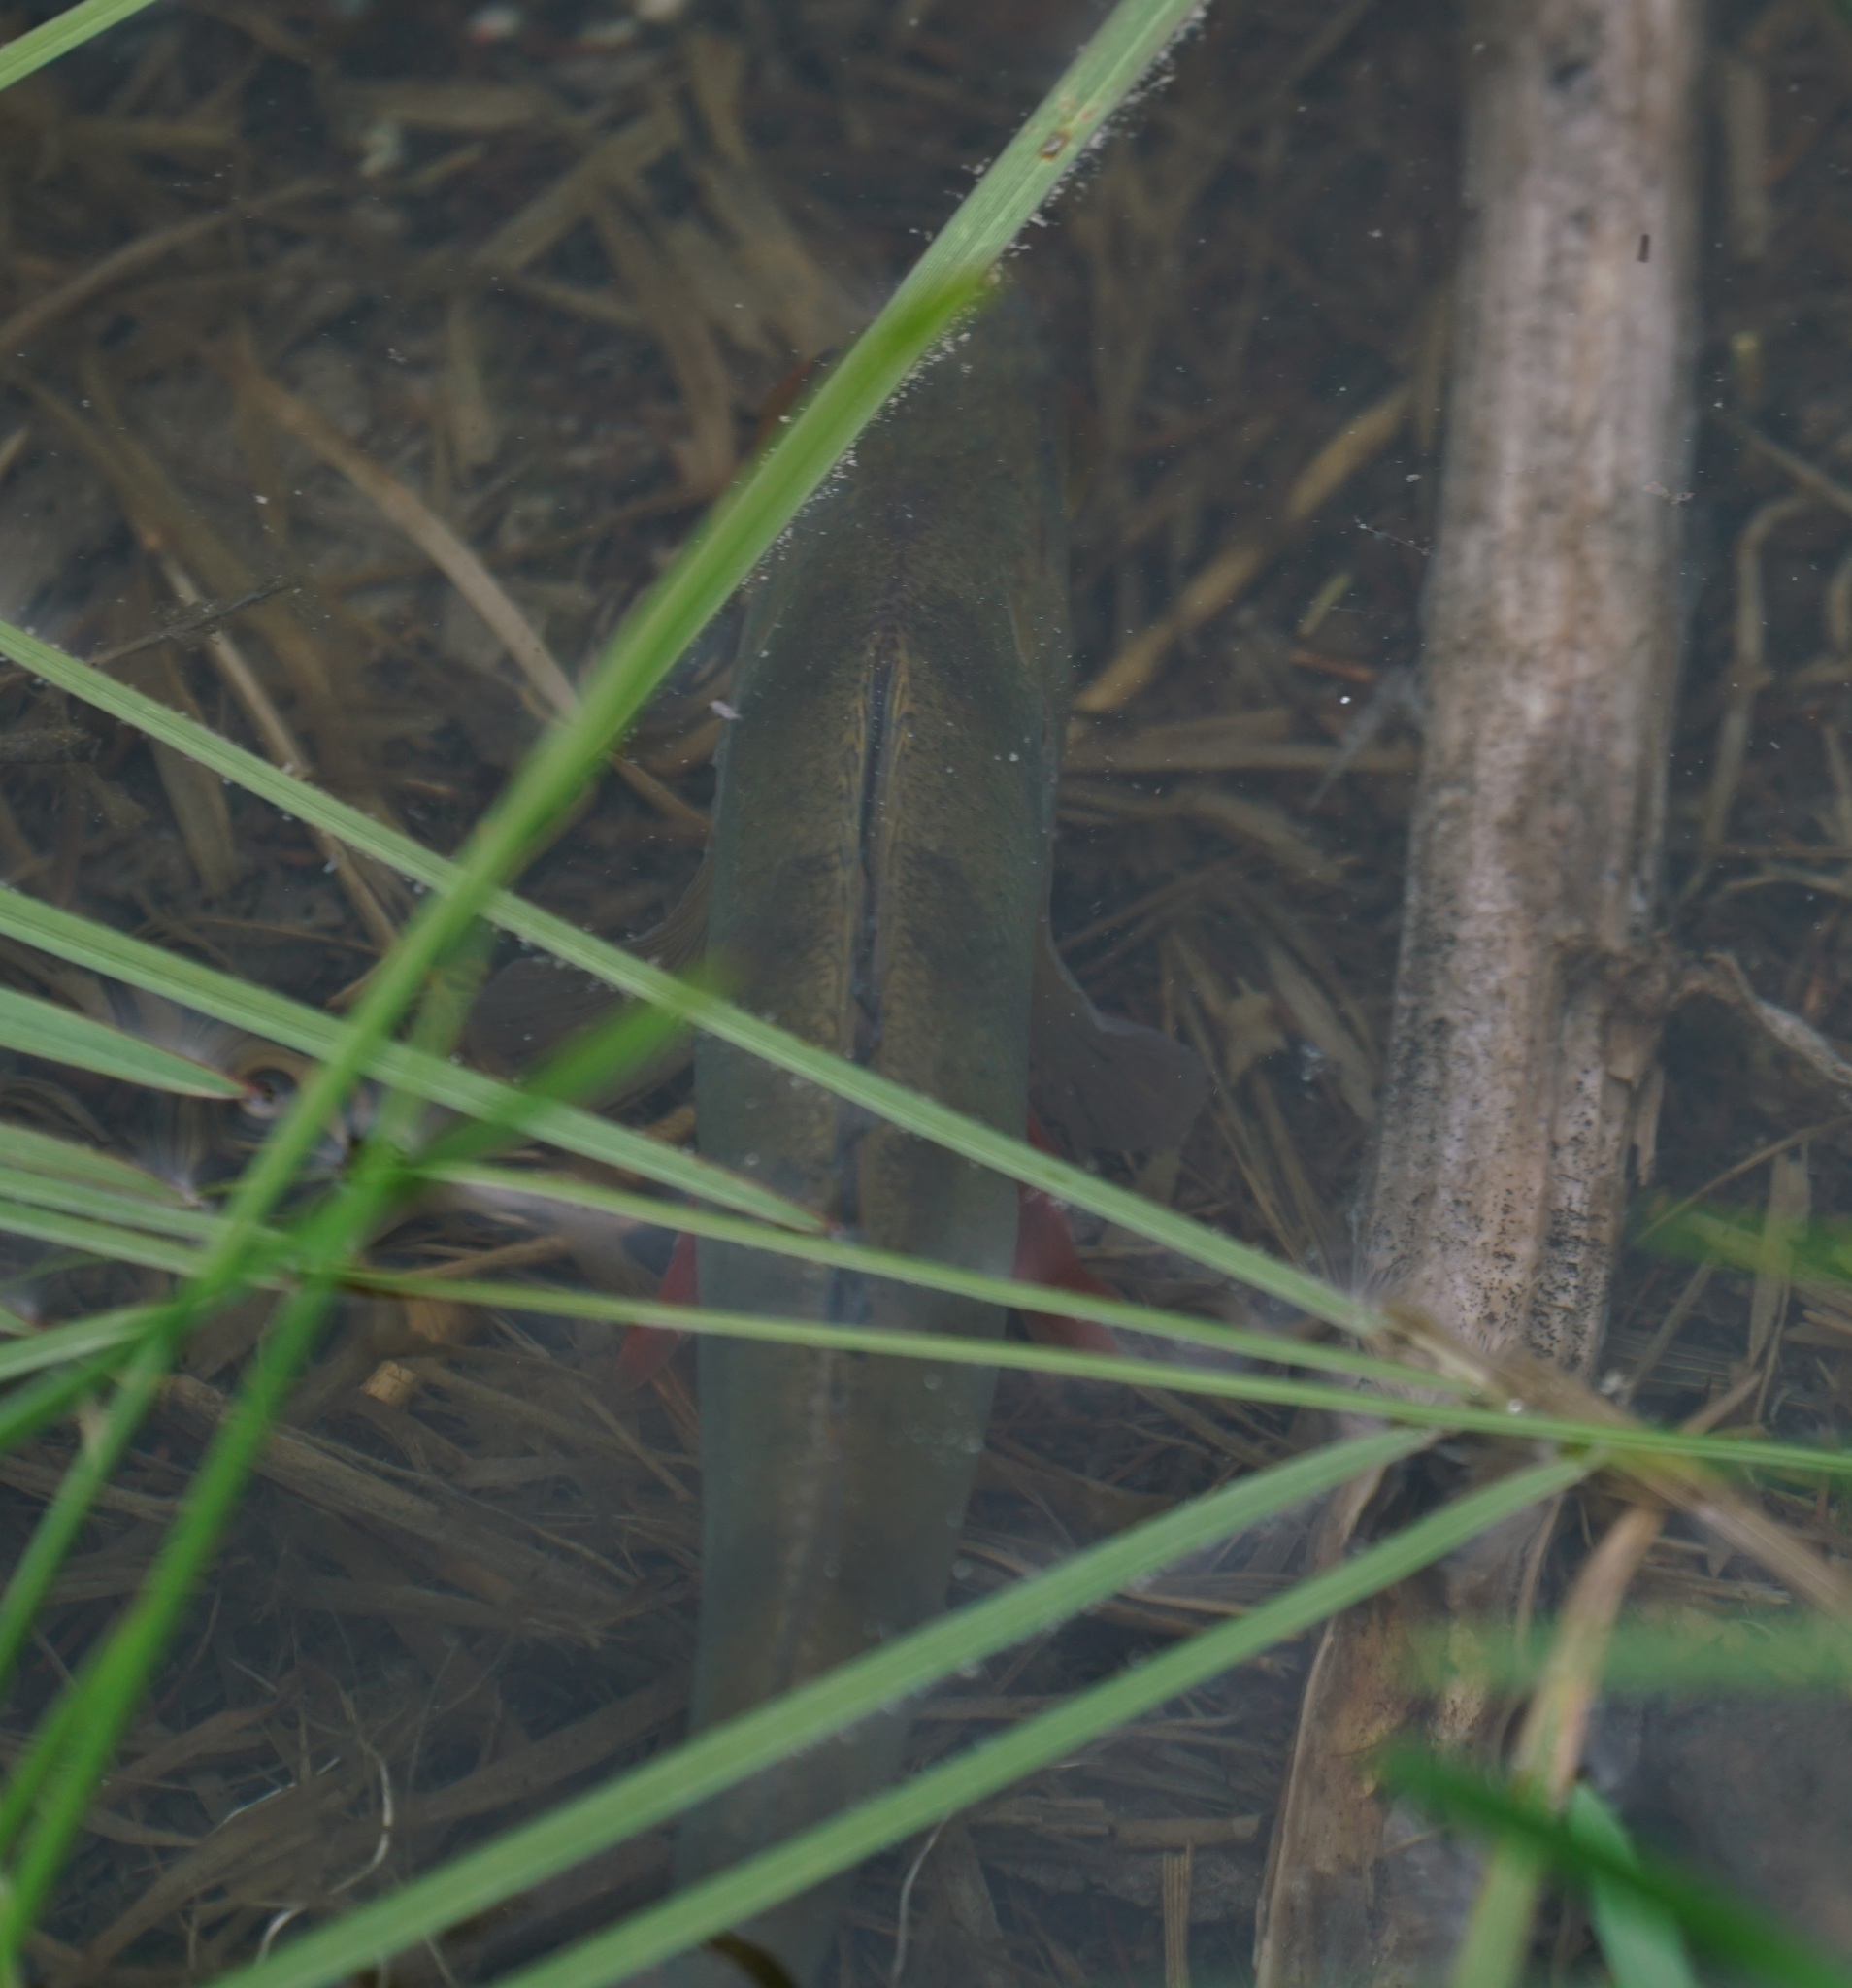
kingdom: Animalia
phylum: Chordata
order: Perciformes
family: Percidae
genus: Perca
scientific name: Perca fluviatilis
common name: Perch
